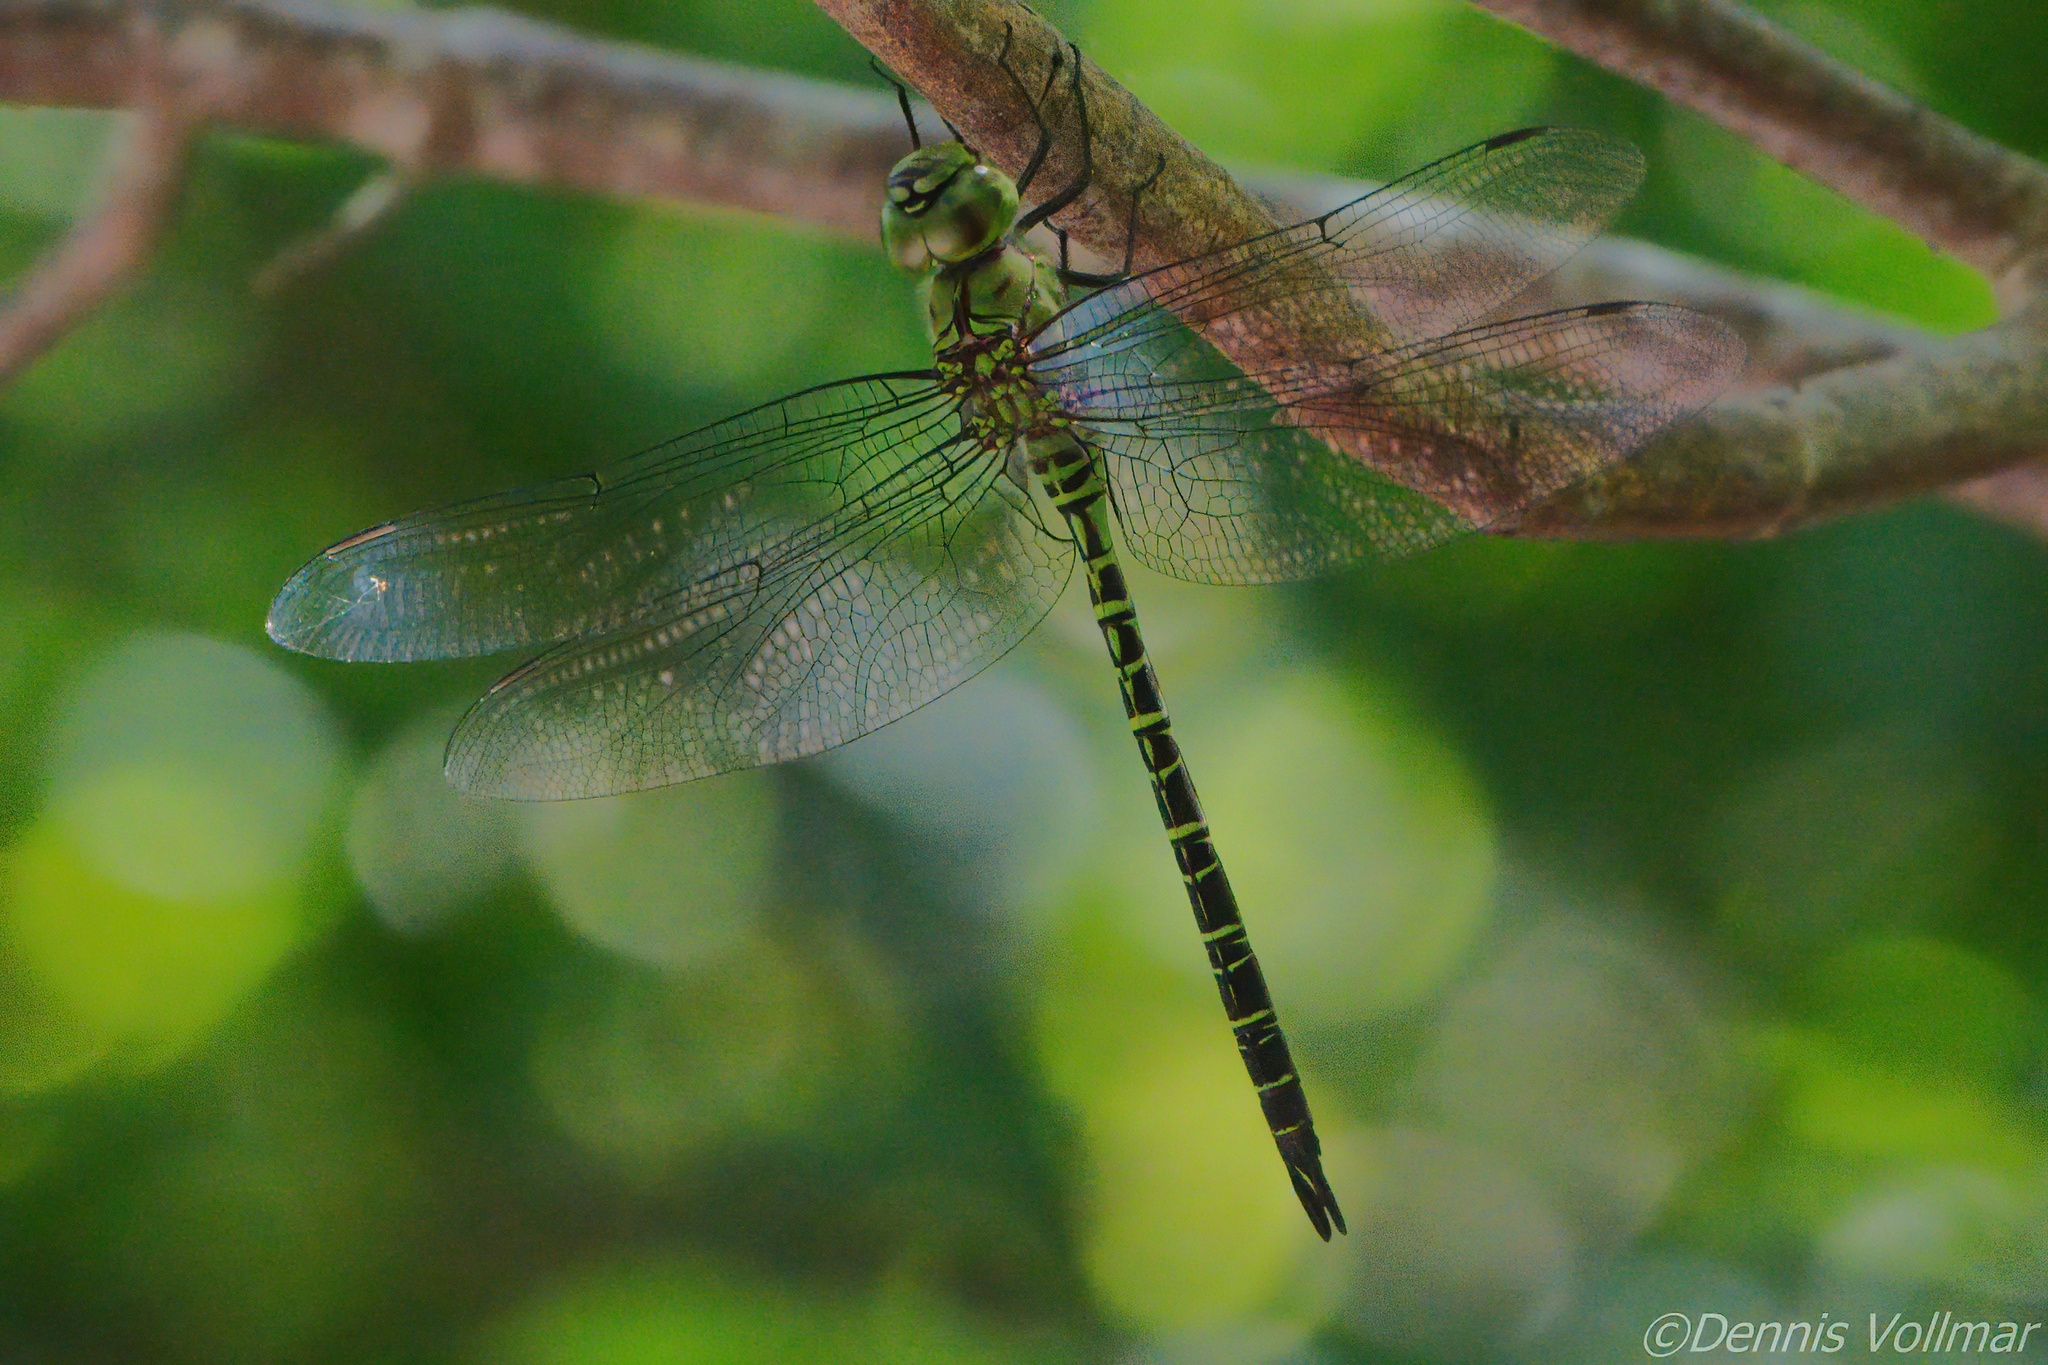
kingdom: Animalia
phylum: Arthropoda
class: Insecta
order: Odonata
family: Aeshnidae
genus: Coryphaeschna
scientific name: Coryphaeschna viriditas
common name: Mangrove darner
